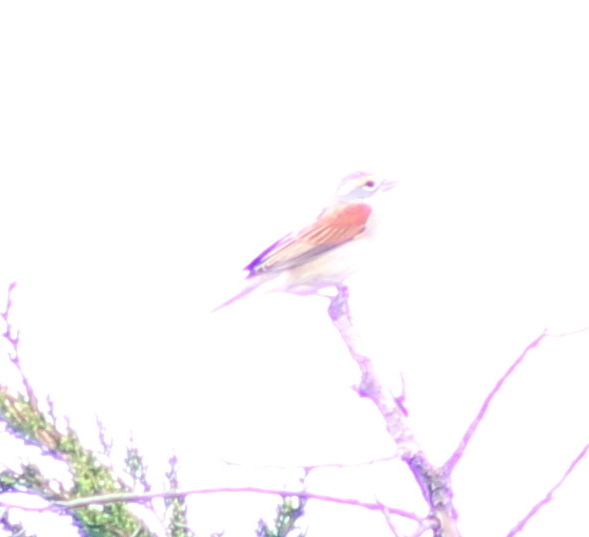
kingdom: Animalia
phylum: Chordata
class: Aves
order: Passeriformes
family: Cardinalidae
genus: Spiza
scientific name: Spiza americana
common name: Dickcissel
